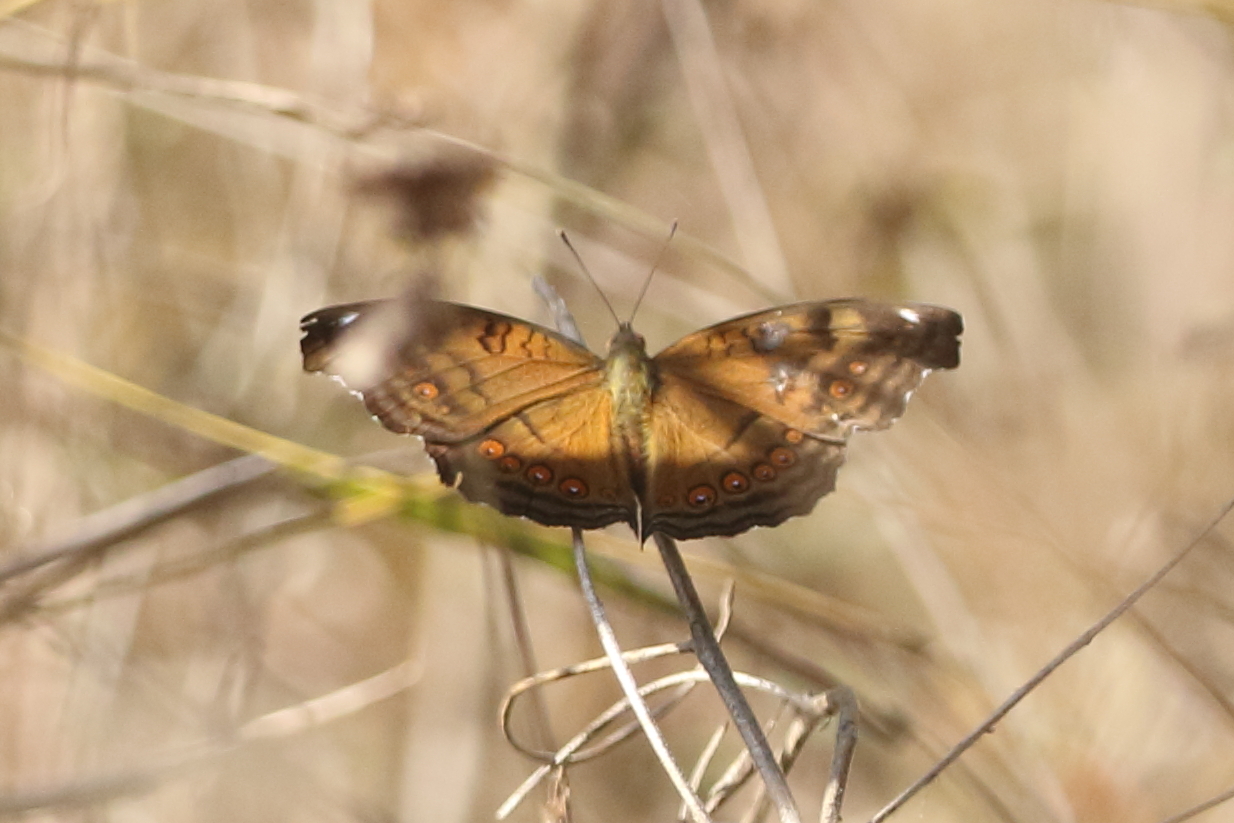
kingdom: Animalia
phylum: Arthropoda
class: Insecta
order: Lepidoptera
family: Nymphalidae
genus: Junonia
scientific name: Junonia hedonia
